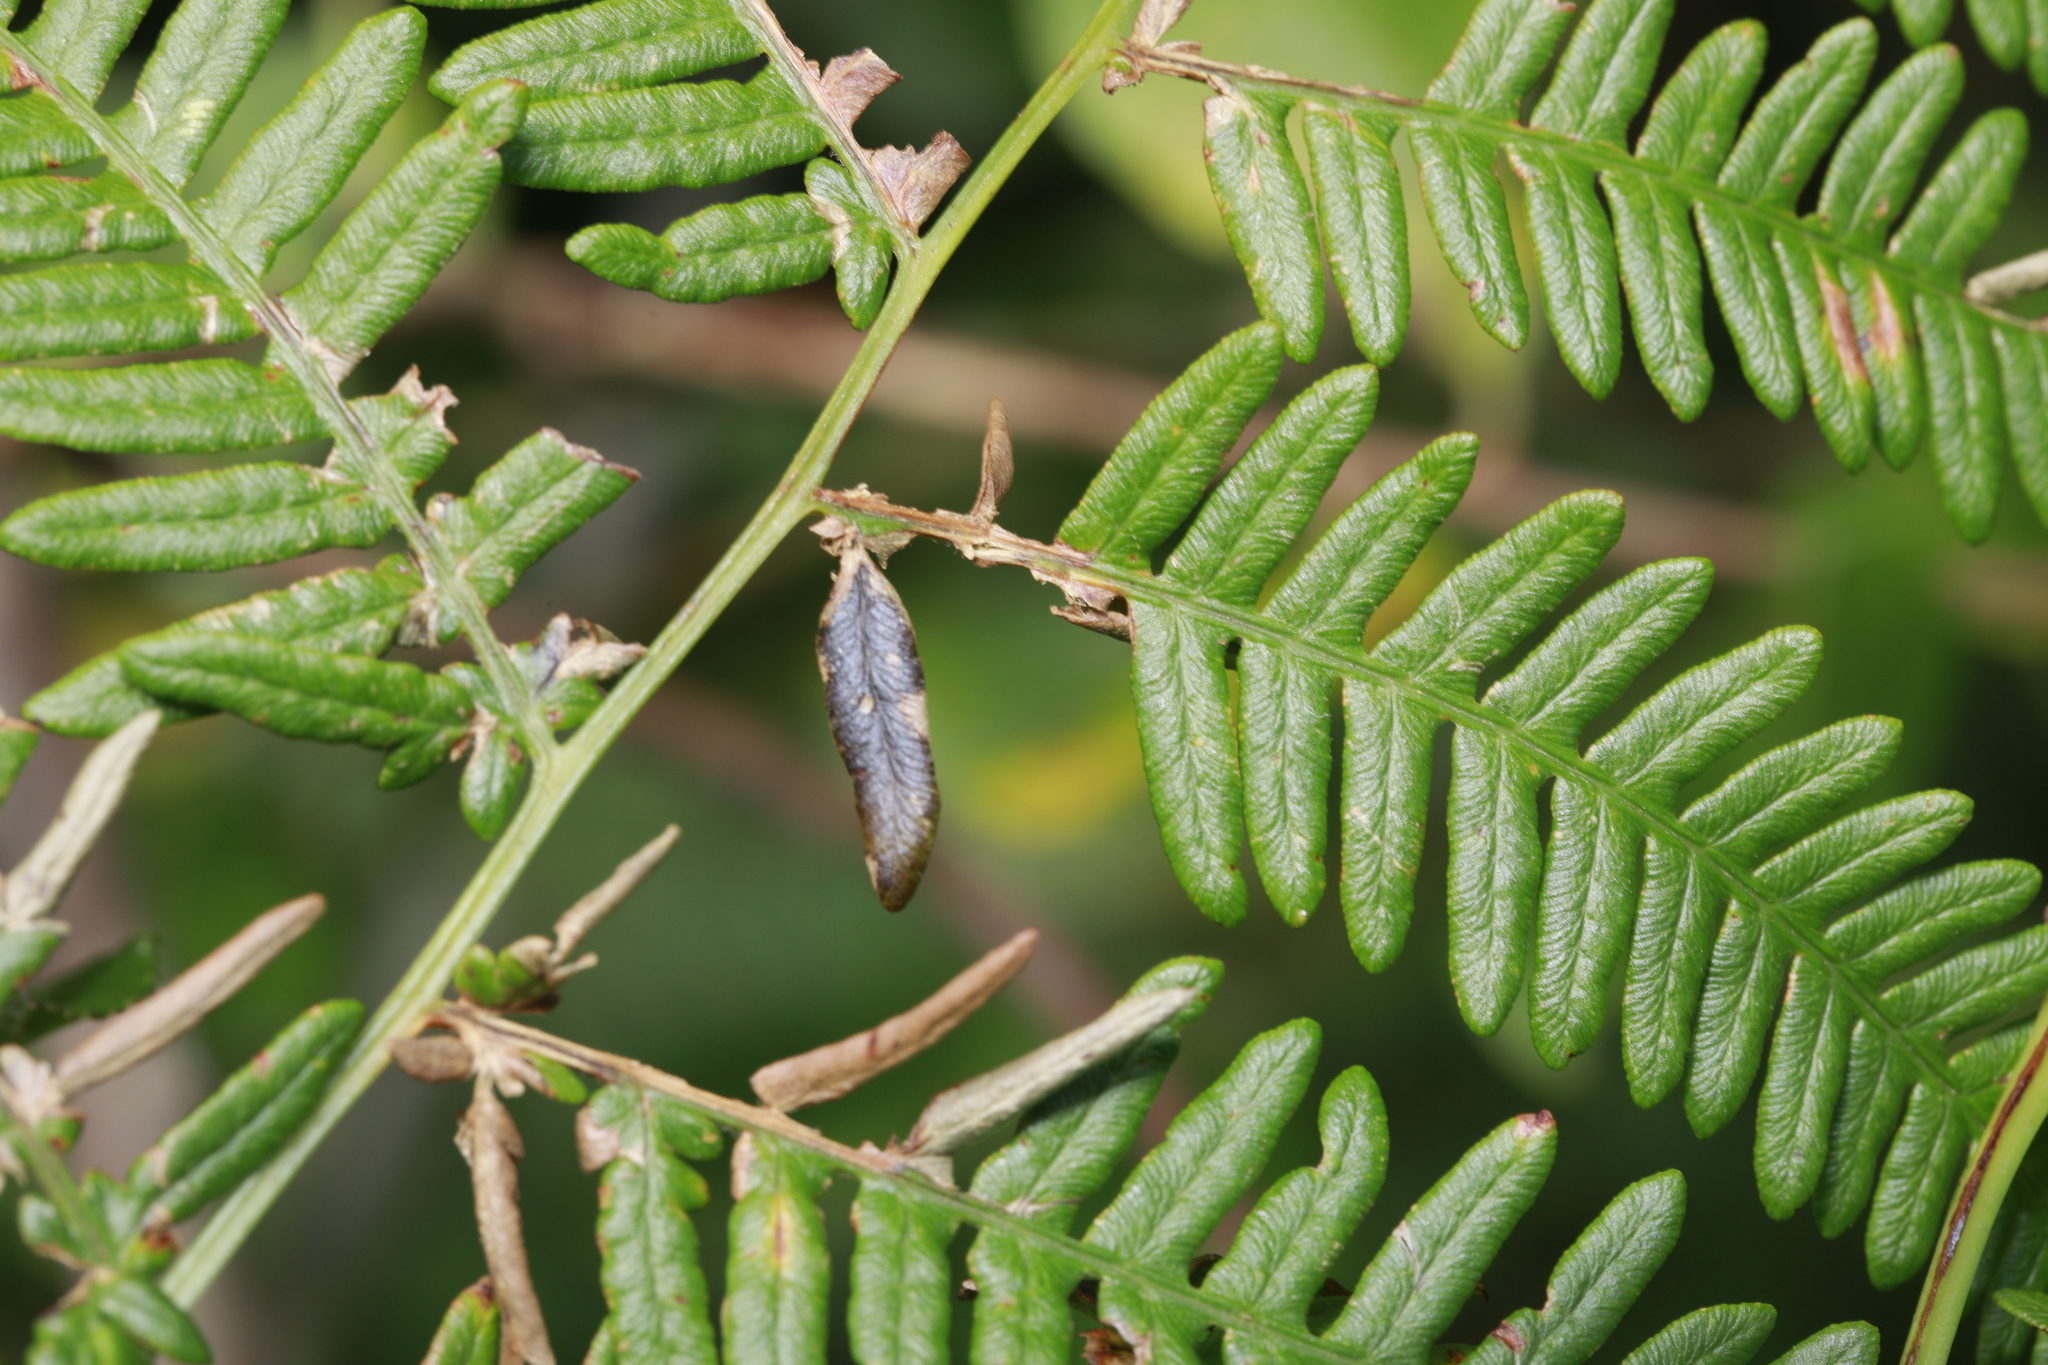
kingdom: Animalia
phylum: Arthropoda
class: Insecta
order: Diptera
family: Cecidomyiidae
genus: Dasineura
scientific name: Dasineura pteridis
